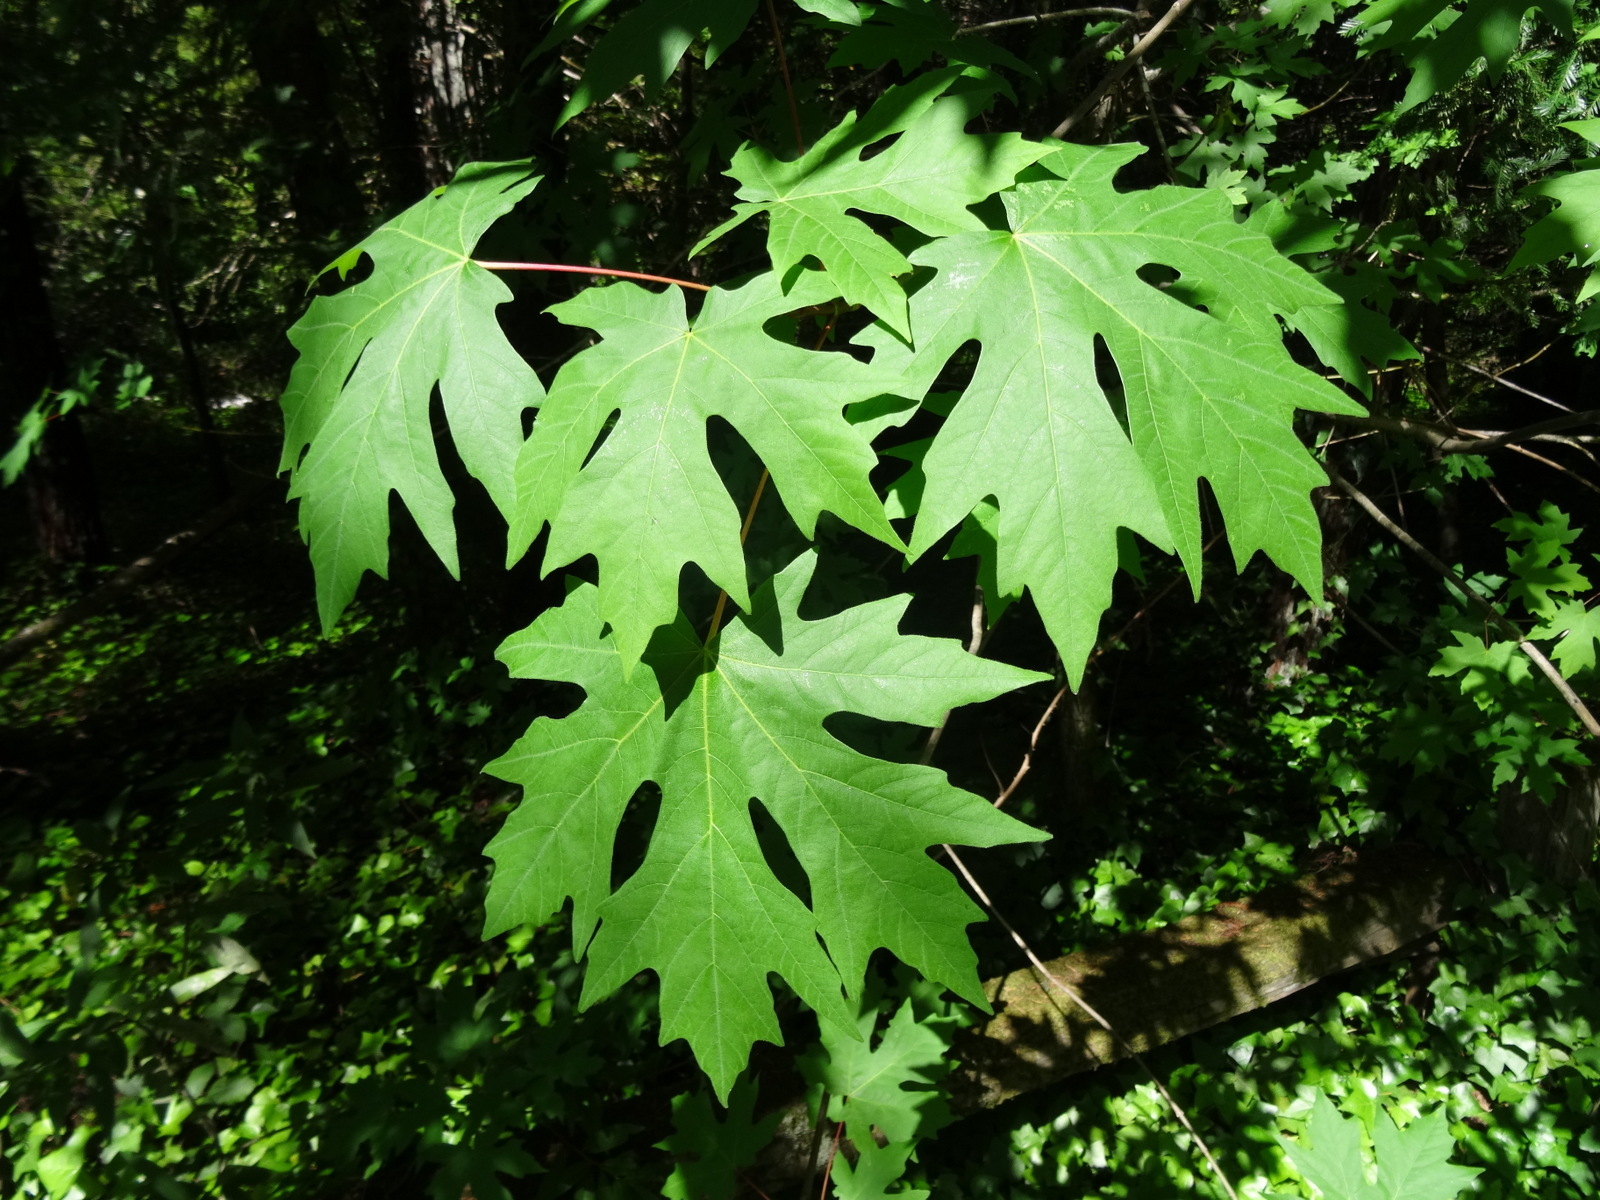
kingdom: Plantae
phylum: Tracheophyta
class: Magnoliopsida
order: Sapindales
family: Sapindaceae
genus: Acer
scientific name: Acer macrophyllum
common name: Oregon maple
